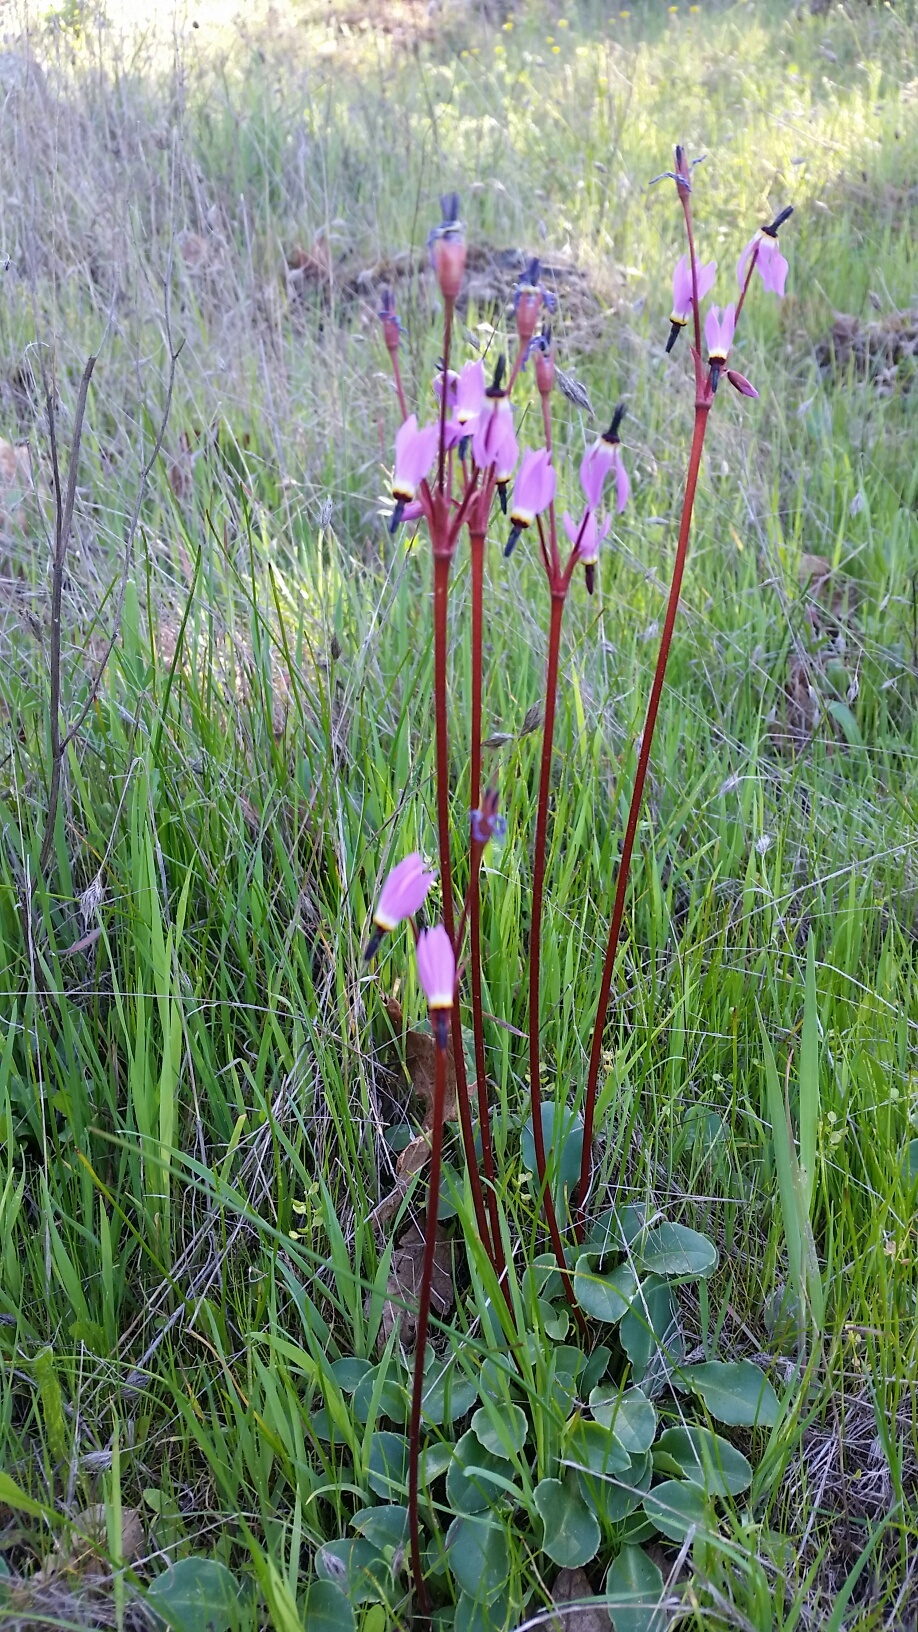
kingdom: Plantae
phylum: Tracheophyta
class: Magnoliopsida
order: Ericales
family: Primulaceae
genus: Dodecatheon
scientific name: Dodecatheon hendersonii
